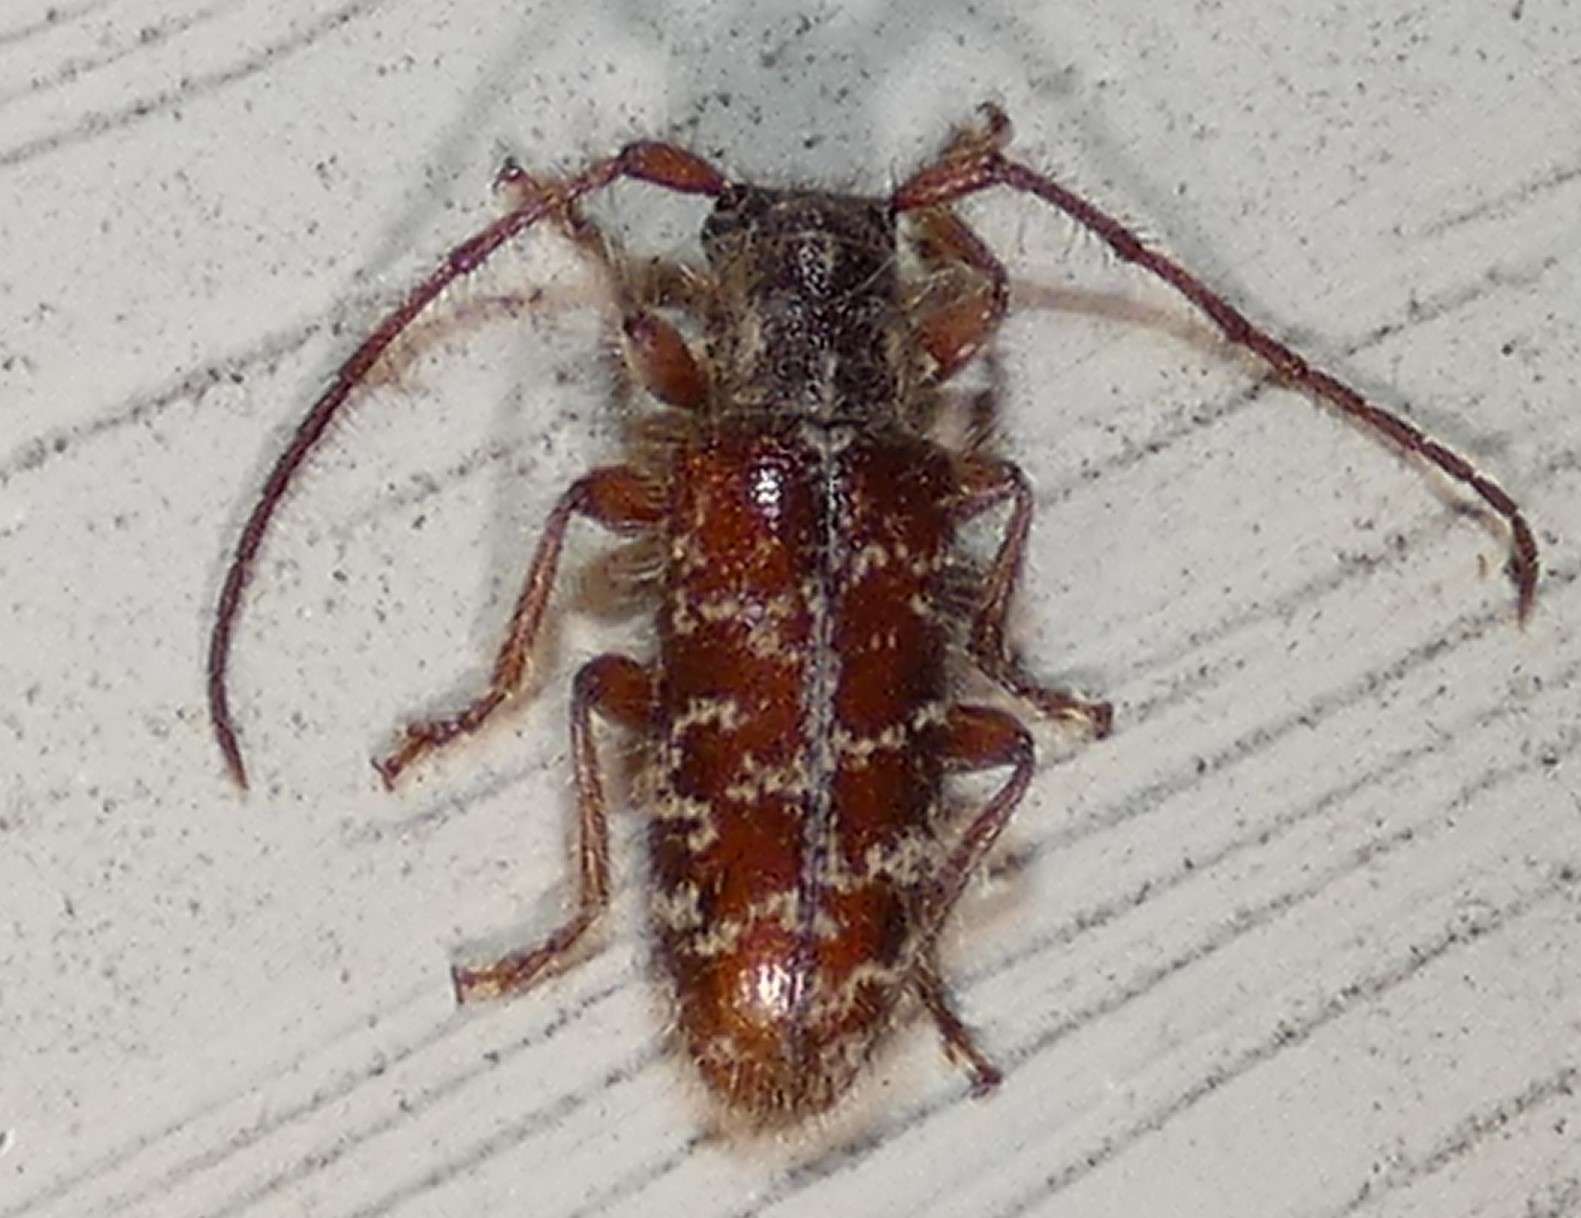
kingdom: Animalia
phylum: Arthropoda
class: Insecta
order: Coleoptera
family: Cerambycidae
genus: Eupogonius
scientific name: Eupogonius tomentosus
